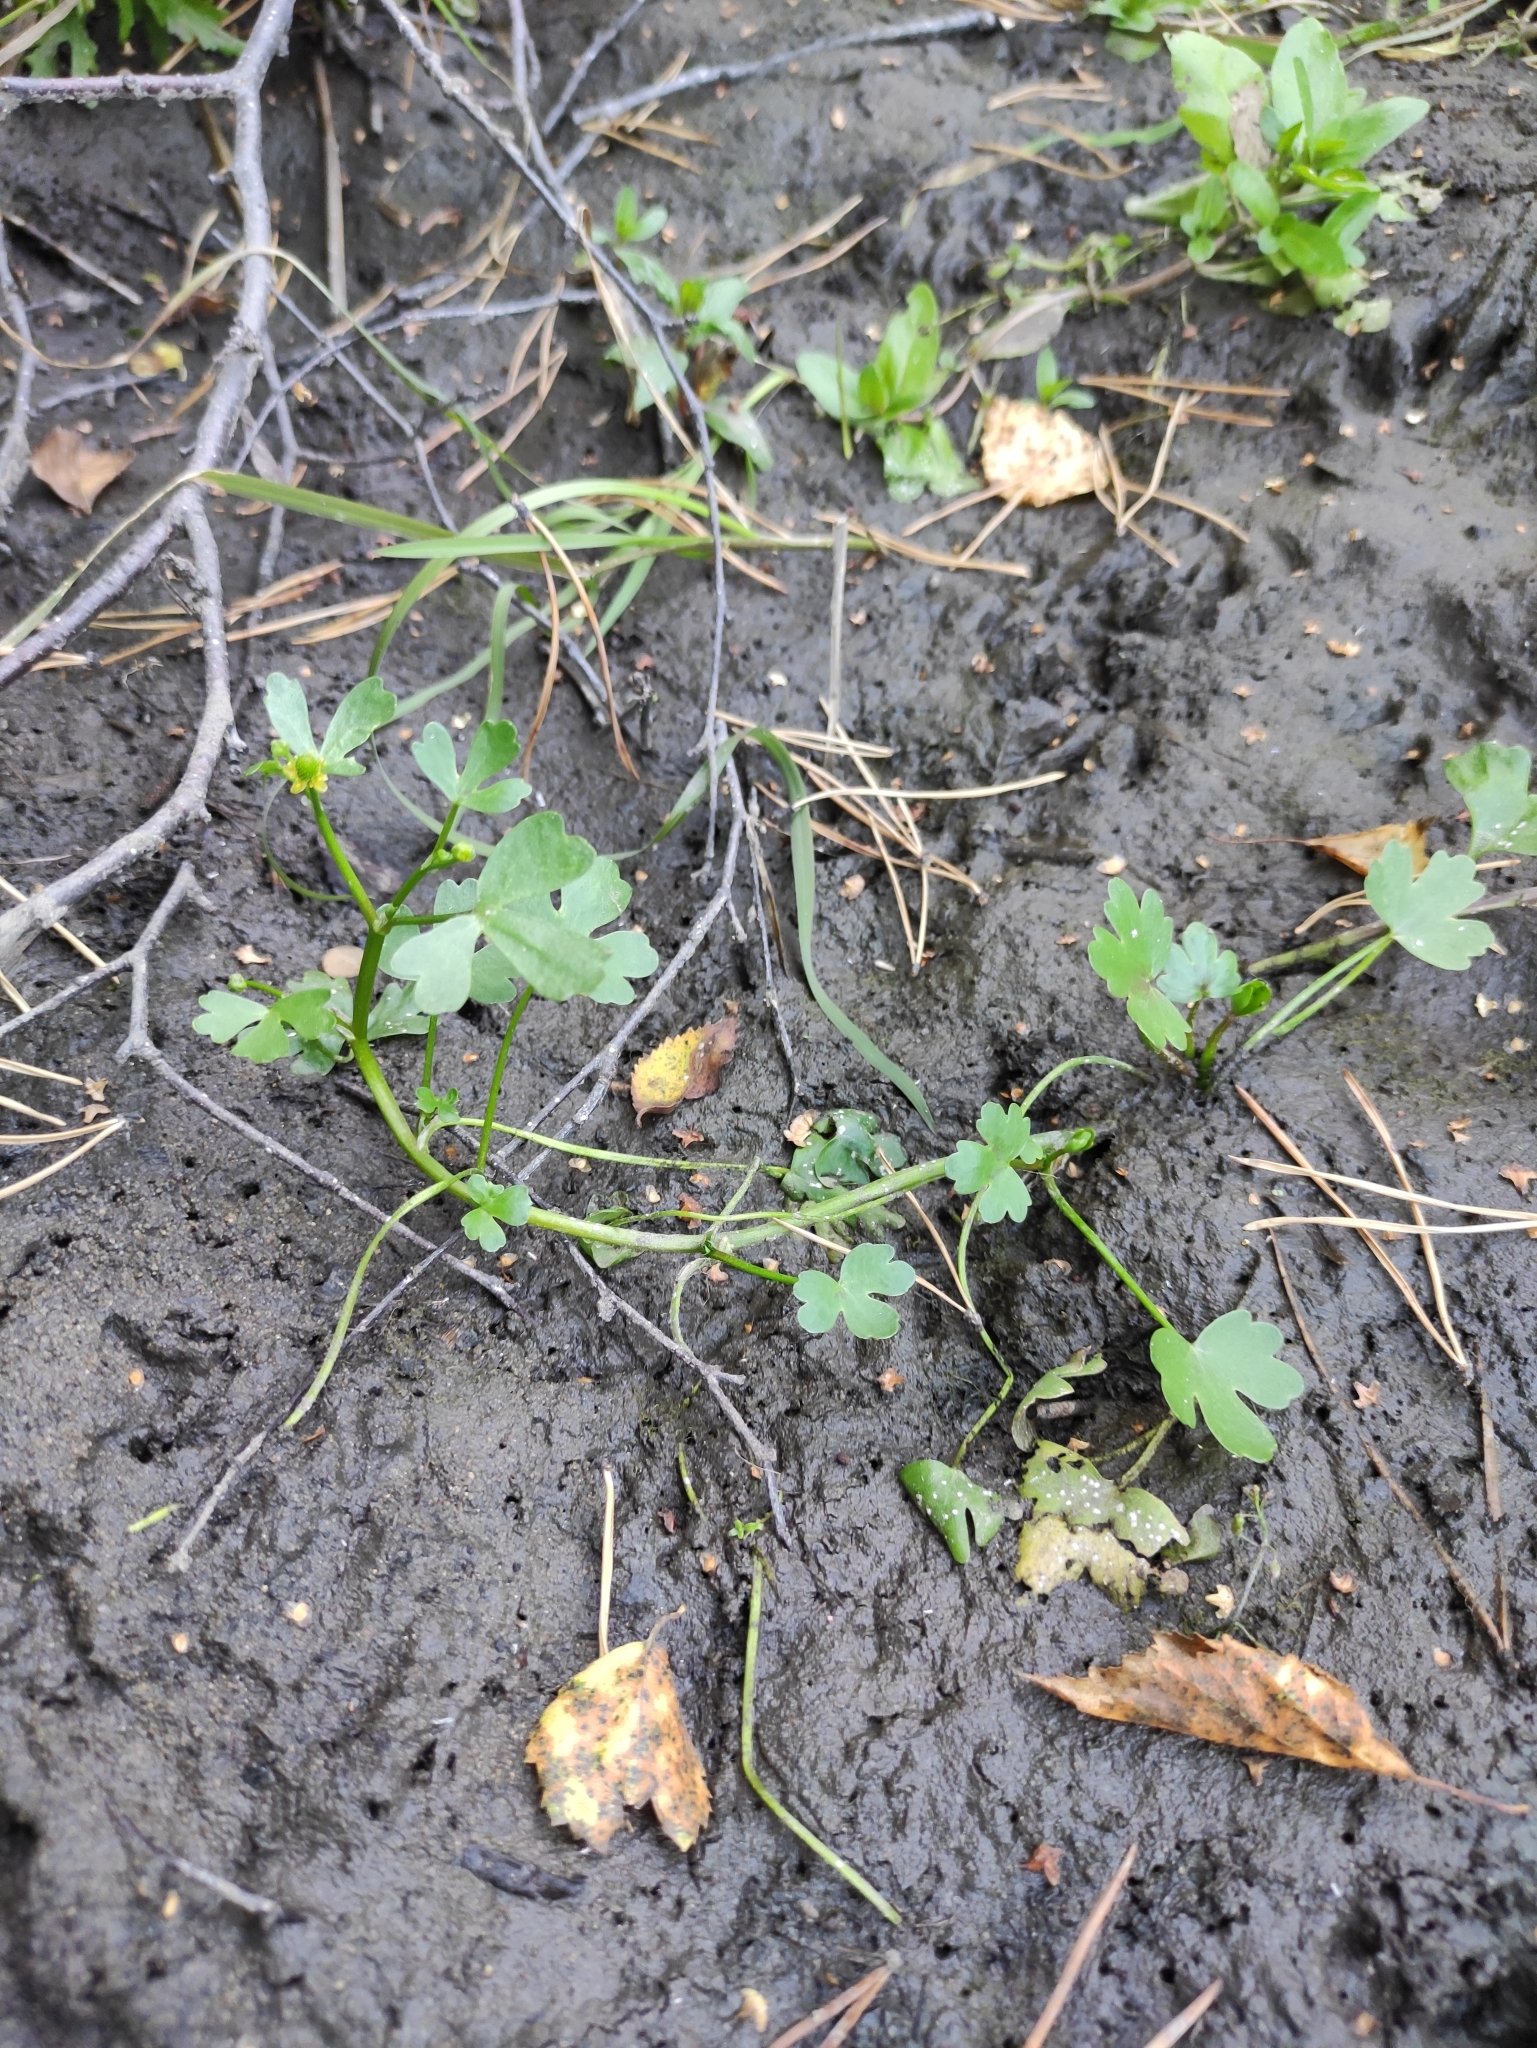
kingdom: Plantae
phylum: Tracheophyta
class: Magnoliopsida
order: Ranunculales
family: Ranunculaceae
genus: Ranunculus
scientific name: Ranunculus sceleratus
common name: Celery-leaved buttercup
